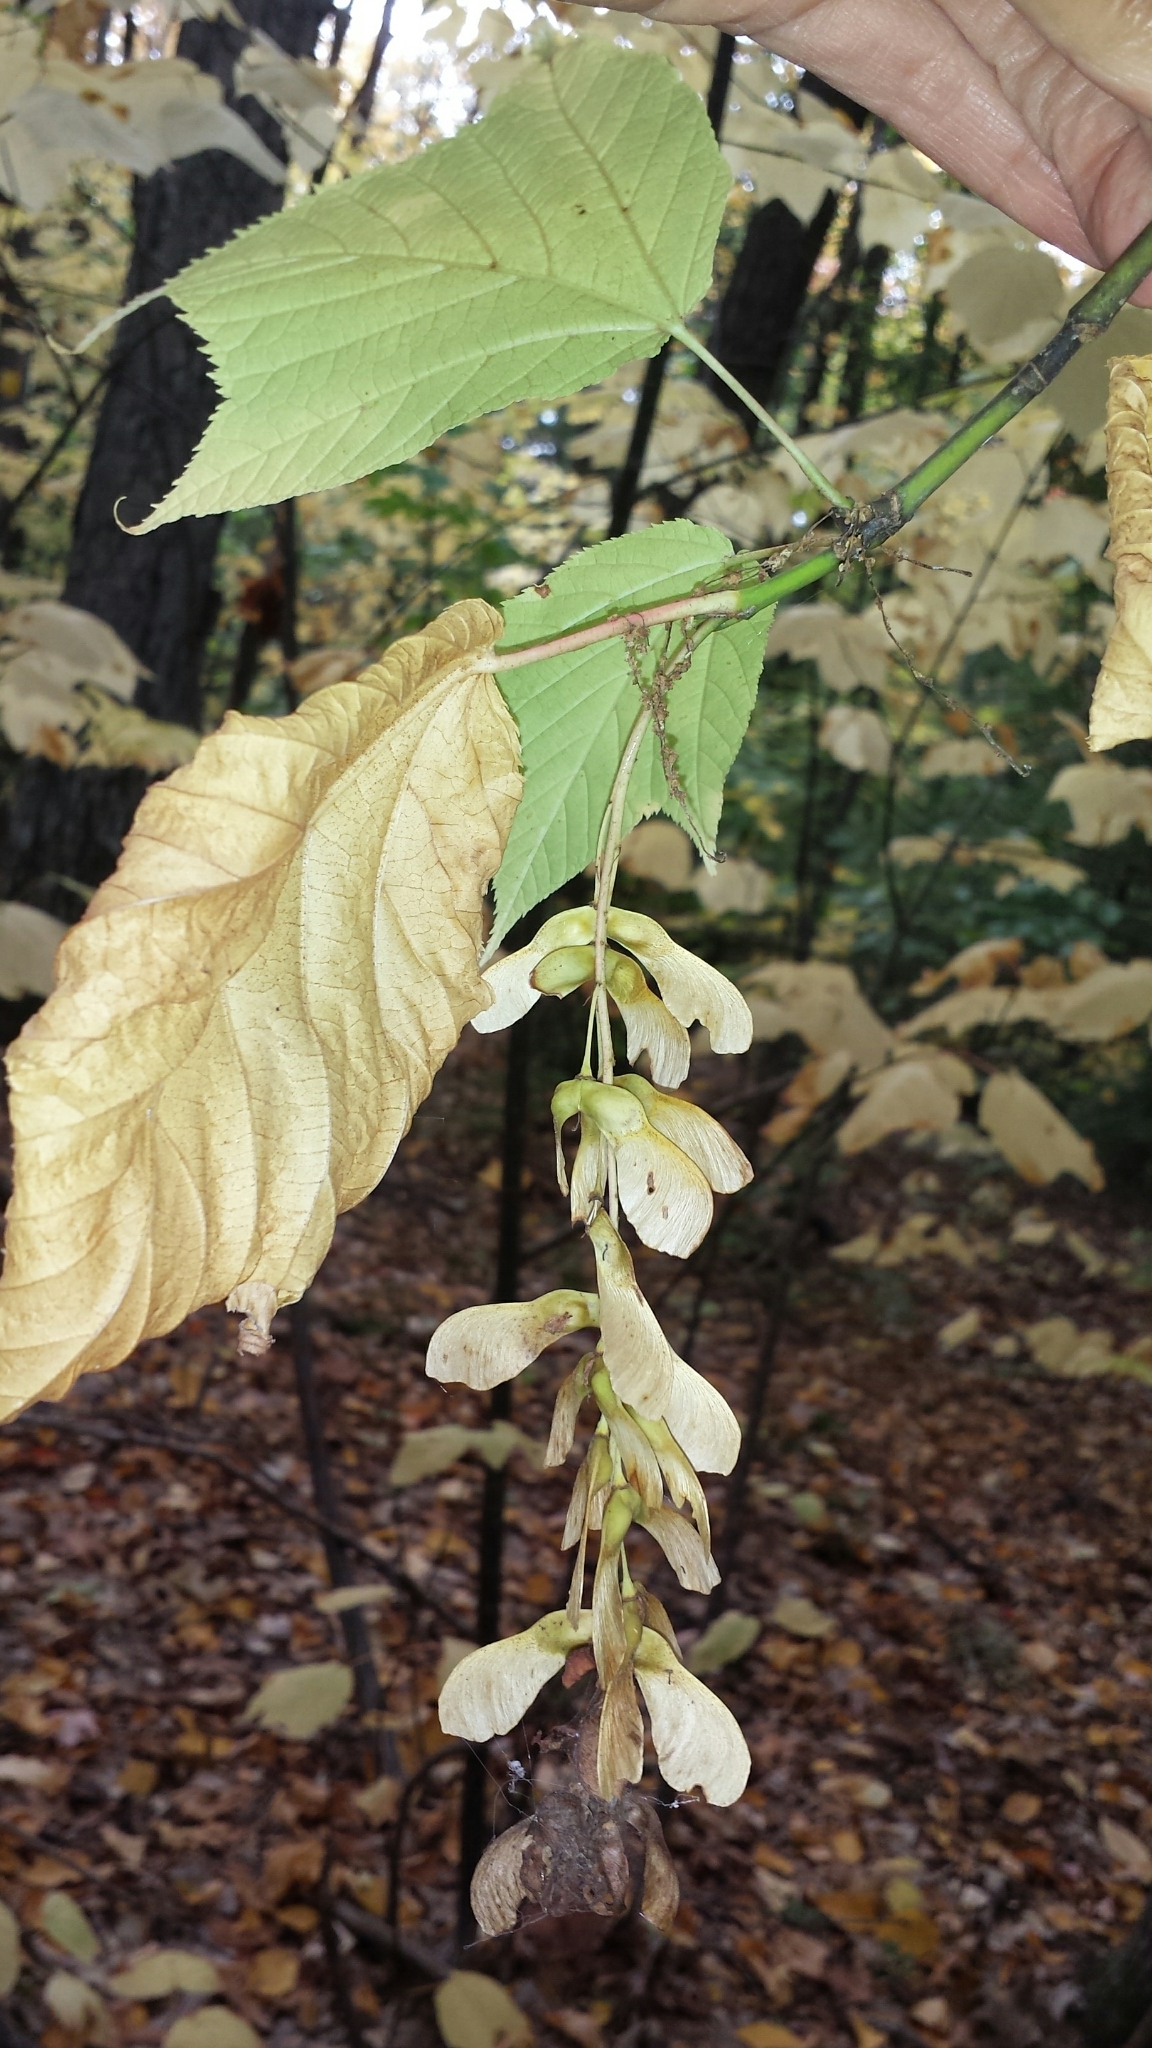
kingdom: Plantae
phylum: Tracheophyta
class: Magnoliopsida
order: Sapindales
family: Sapindaceae
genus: Acer
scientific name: Acer pensylvanicum
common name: Moosewood
